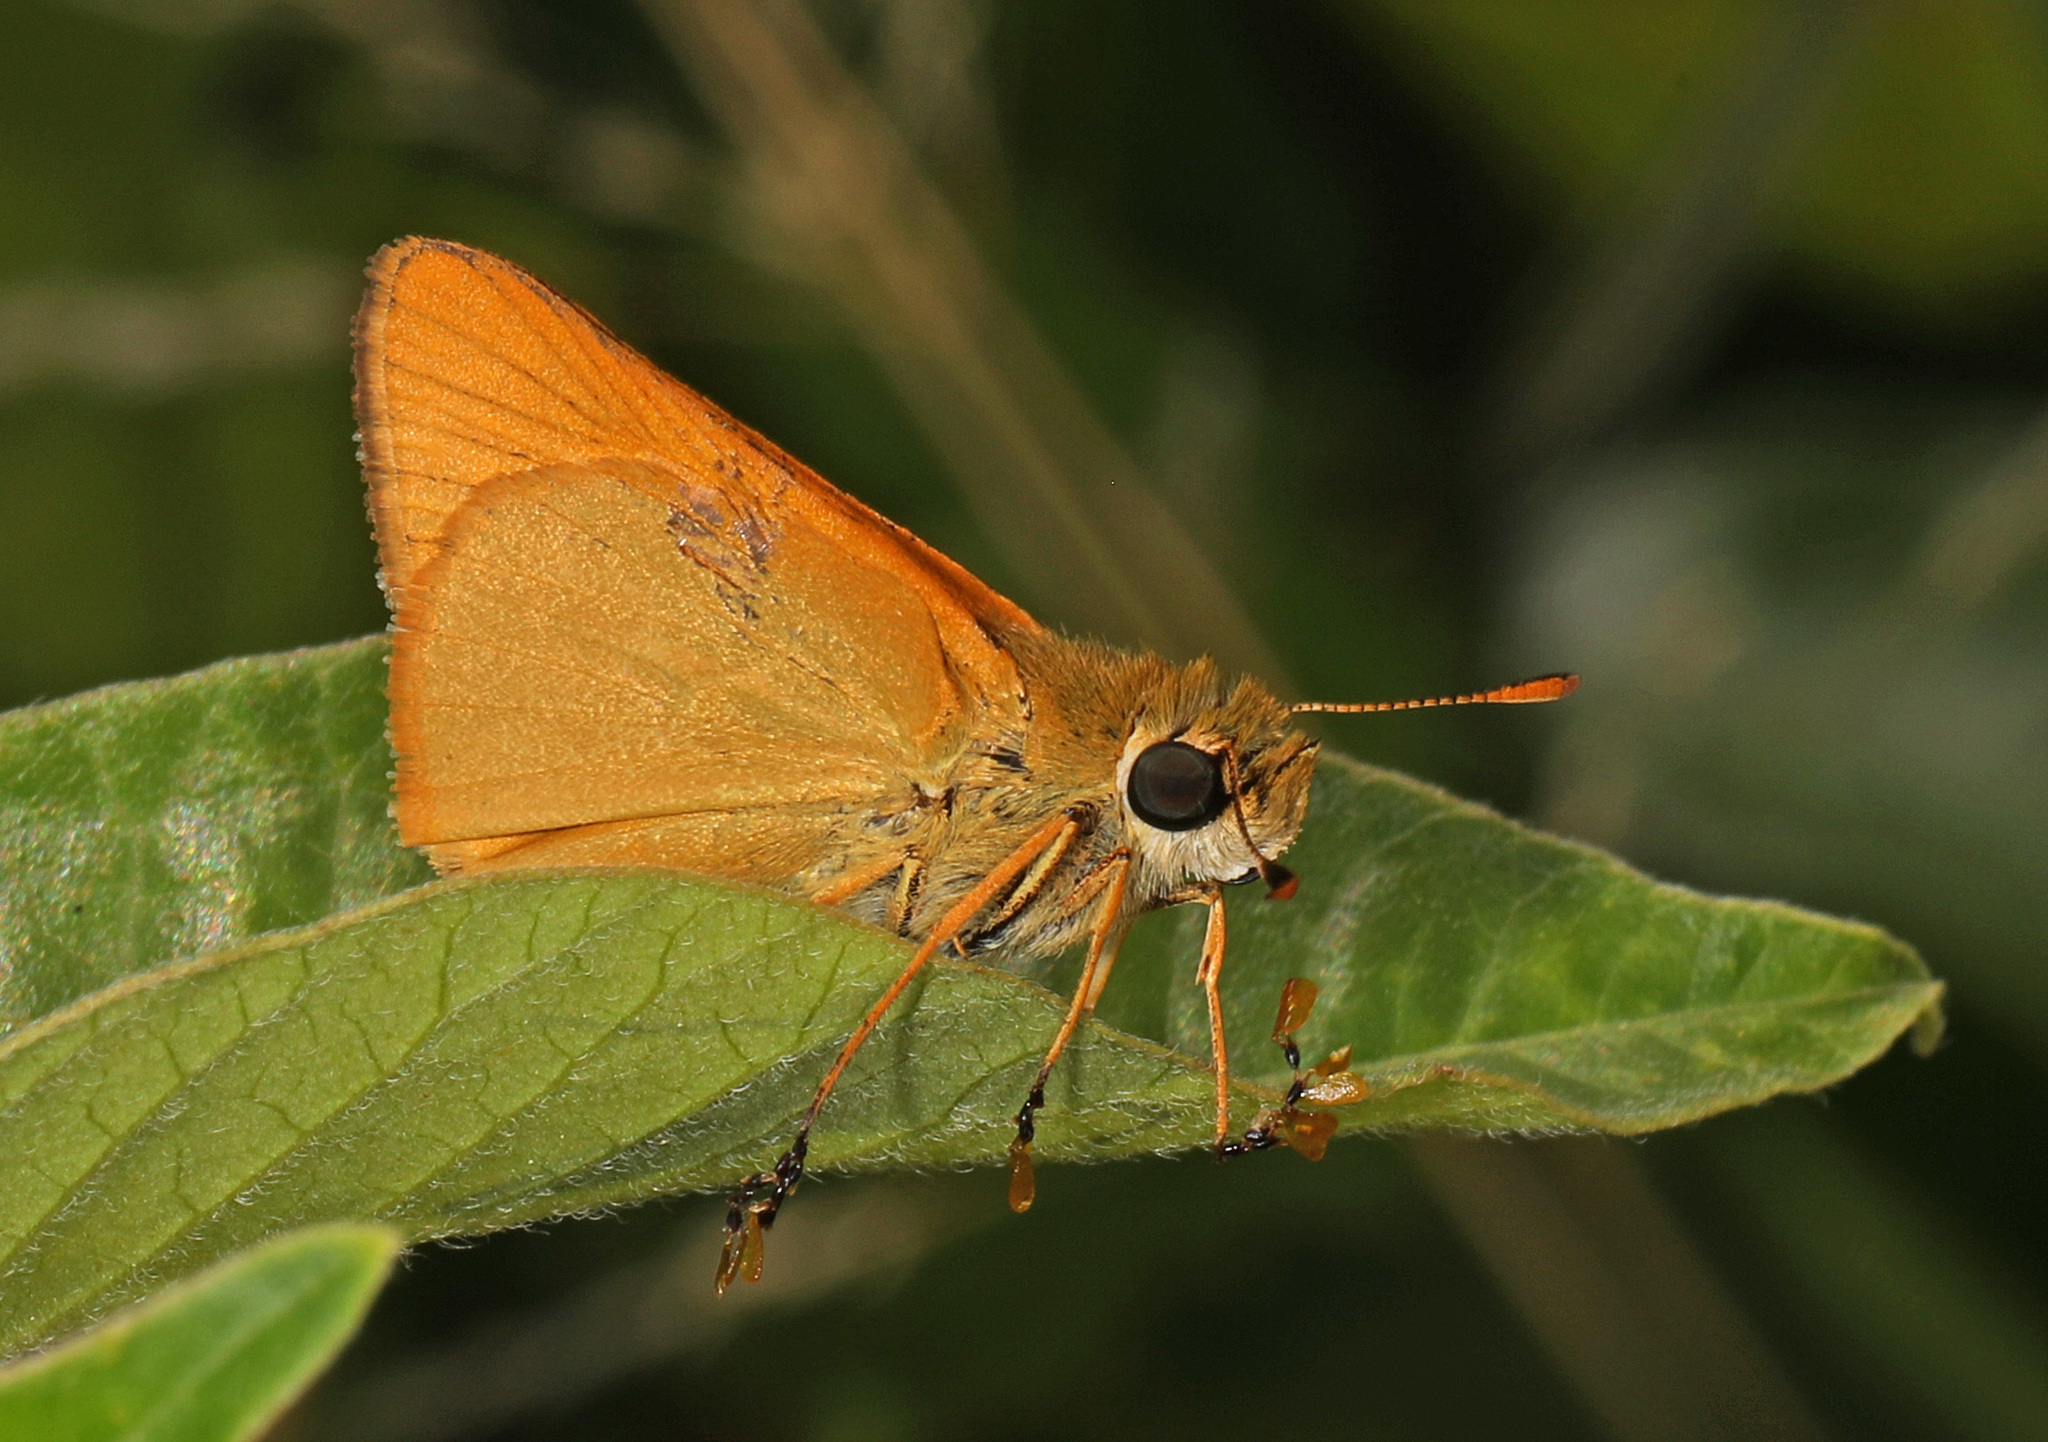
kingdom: Animalia
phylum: Arthropoda
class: Insecta
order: Lepidoptera
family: Hesperiidae
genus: Atrytone
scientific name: Atrytone delaware
